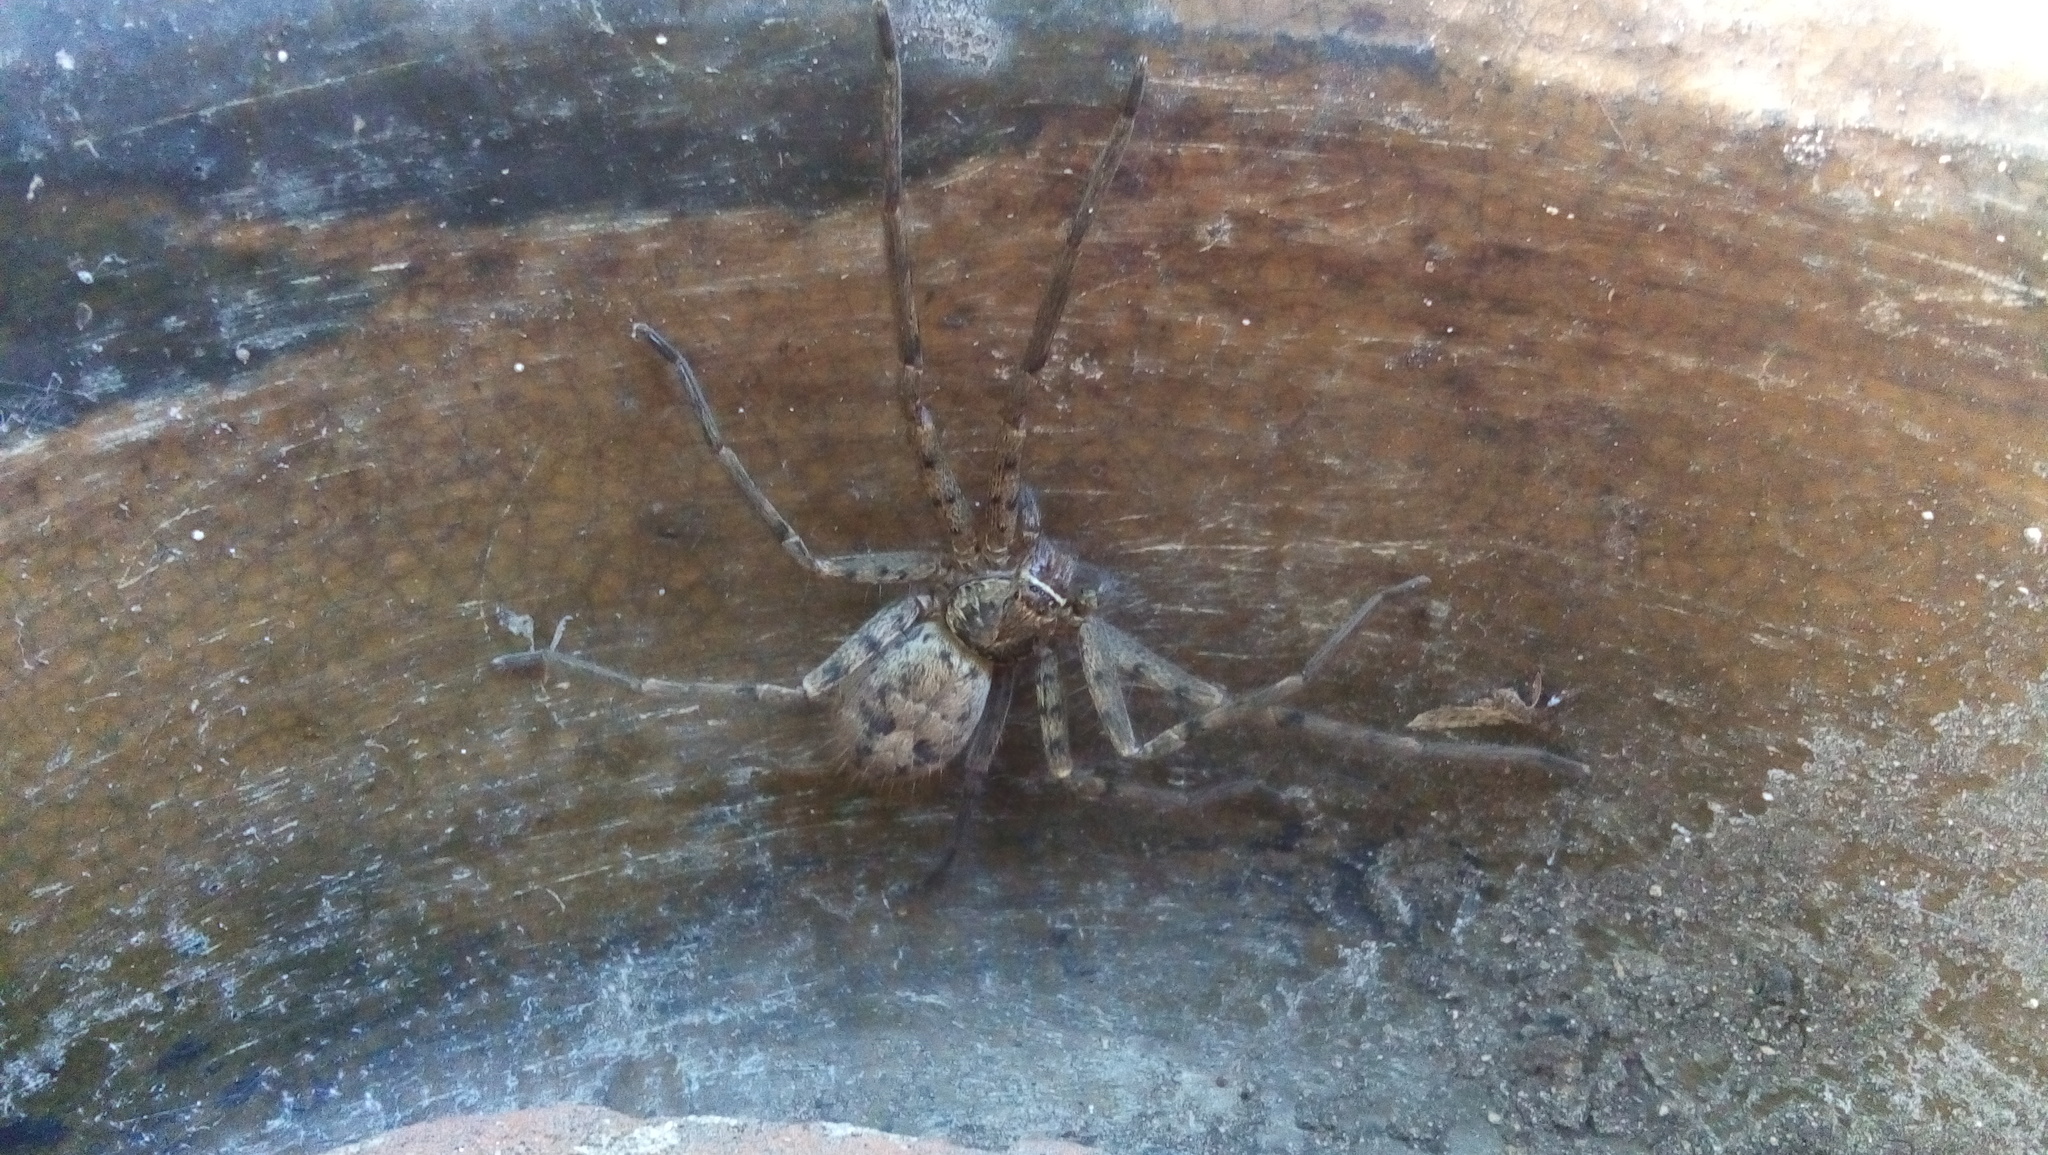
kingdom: Animalia
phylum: Arthropoda
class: Arachnida
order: Araneae
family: Sparassidae
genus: Heteropoda
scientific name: Heteropoda venatoria
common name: Huntsman spider
